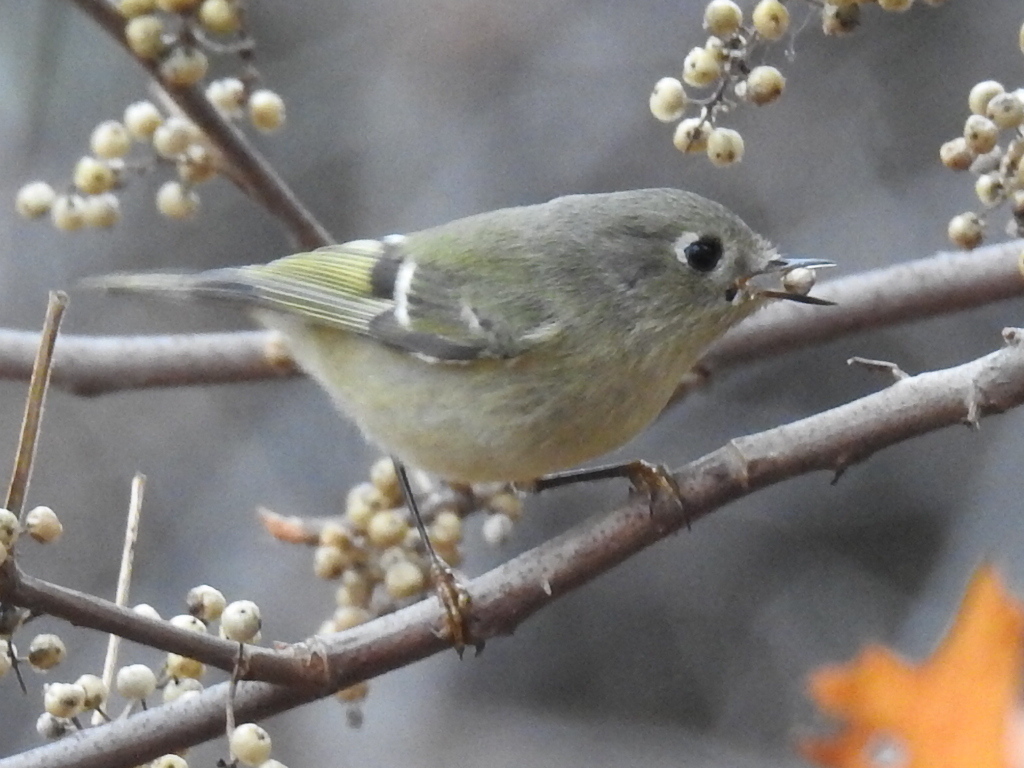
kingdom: Animalia
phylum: Chordata
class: Aves
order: Passeriformes
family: Regulidae
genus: Regulus
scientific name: Regulus calendula
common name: Ruby-crowned kinglet
